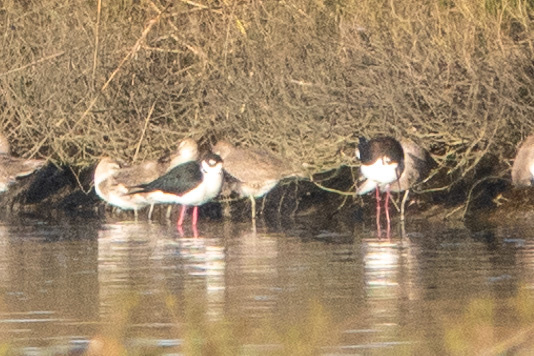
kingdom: Animalia
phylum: Chordata
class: Aves
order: Charadriiformes
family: Recurvirostridae
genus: Himantopus
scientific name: Himantopus mexicanus
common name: Black-necked stilt
